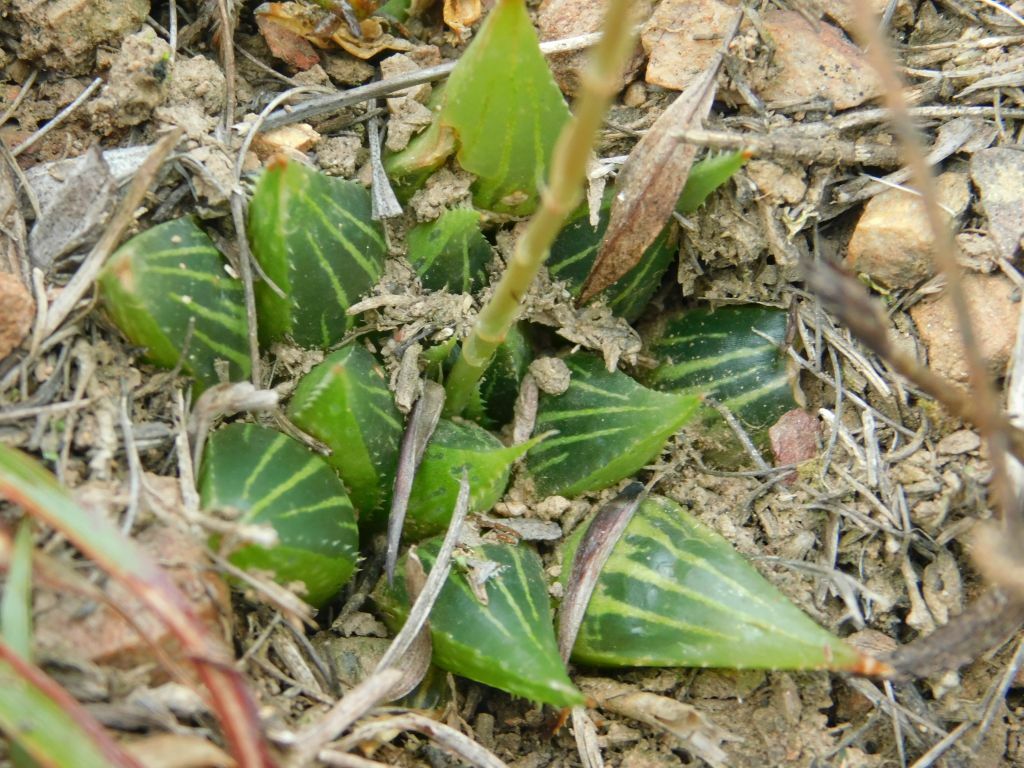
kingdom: Plantae
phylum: Tracheophyta
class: Liliopsida
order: Asparagales
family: Asphodelaceae
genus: Haworthia
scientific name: Haworthia mirabilis
